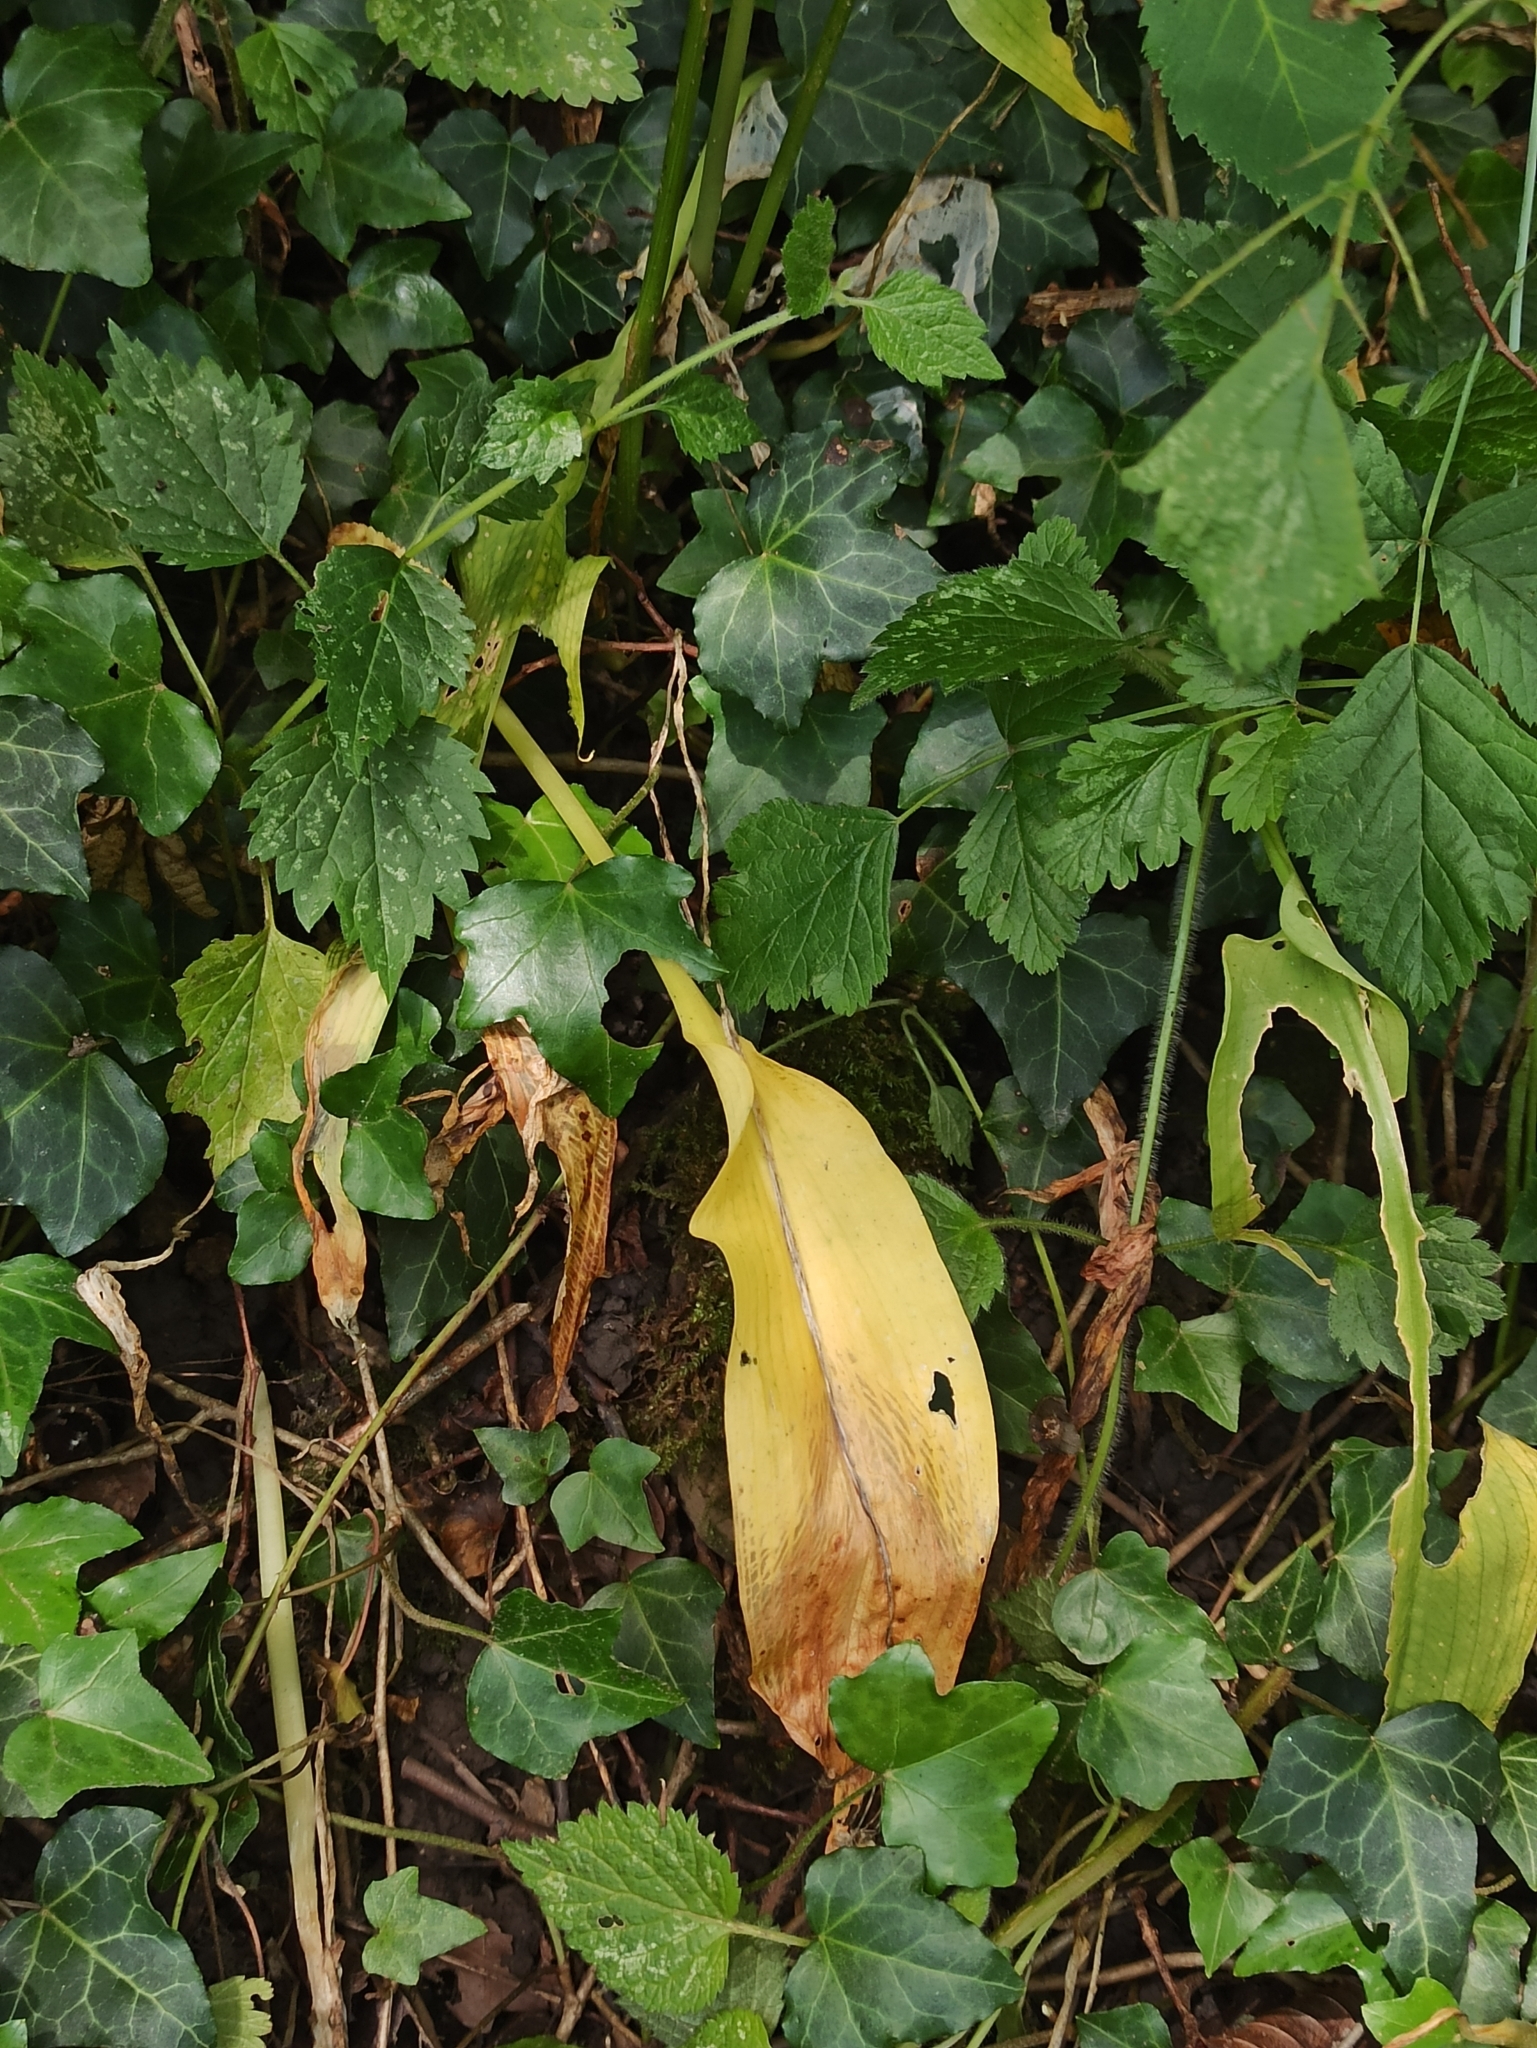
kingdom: Plantae
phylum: Tracheophyta
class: Liliopsida
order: Asparagales
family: Amaryllidaceae
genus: Allium
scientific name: Allium ursinum
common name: Ramsons
